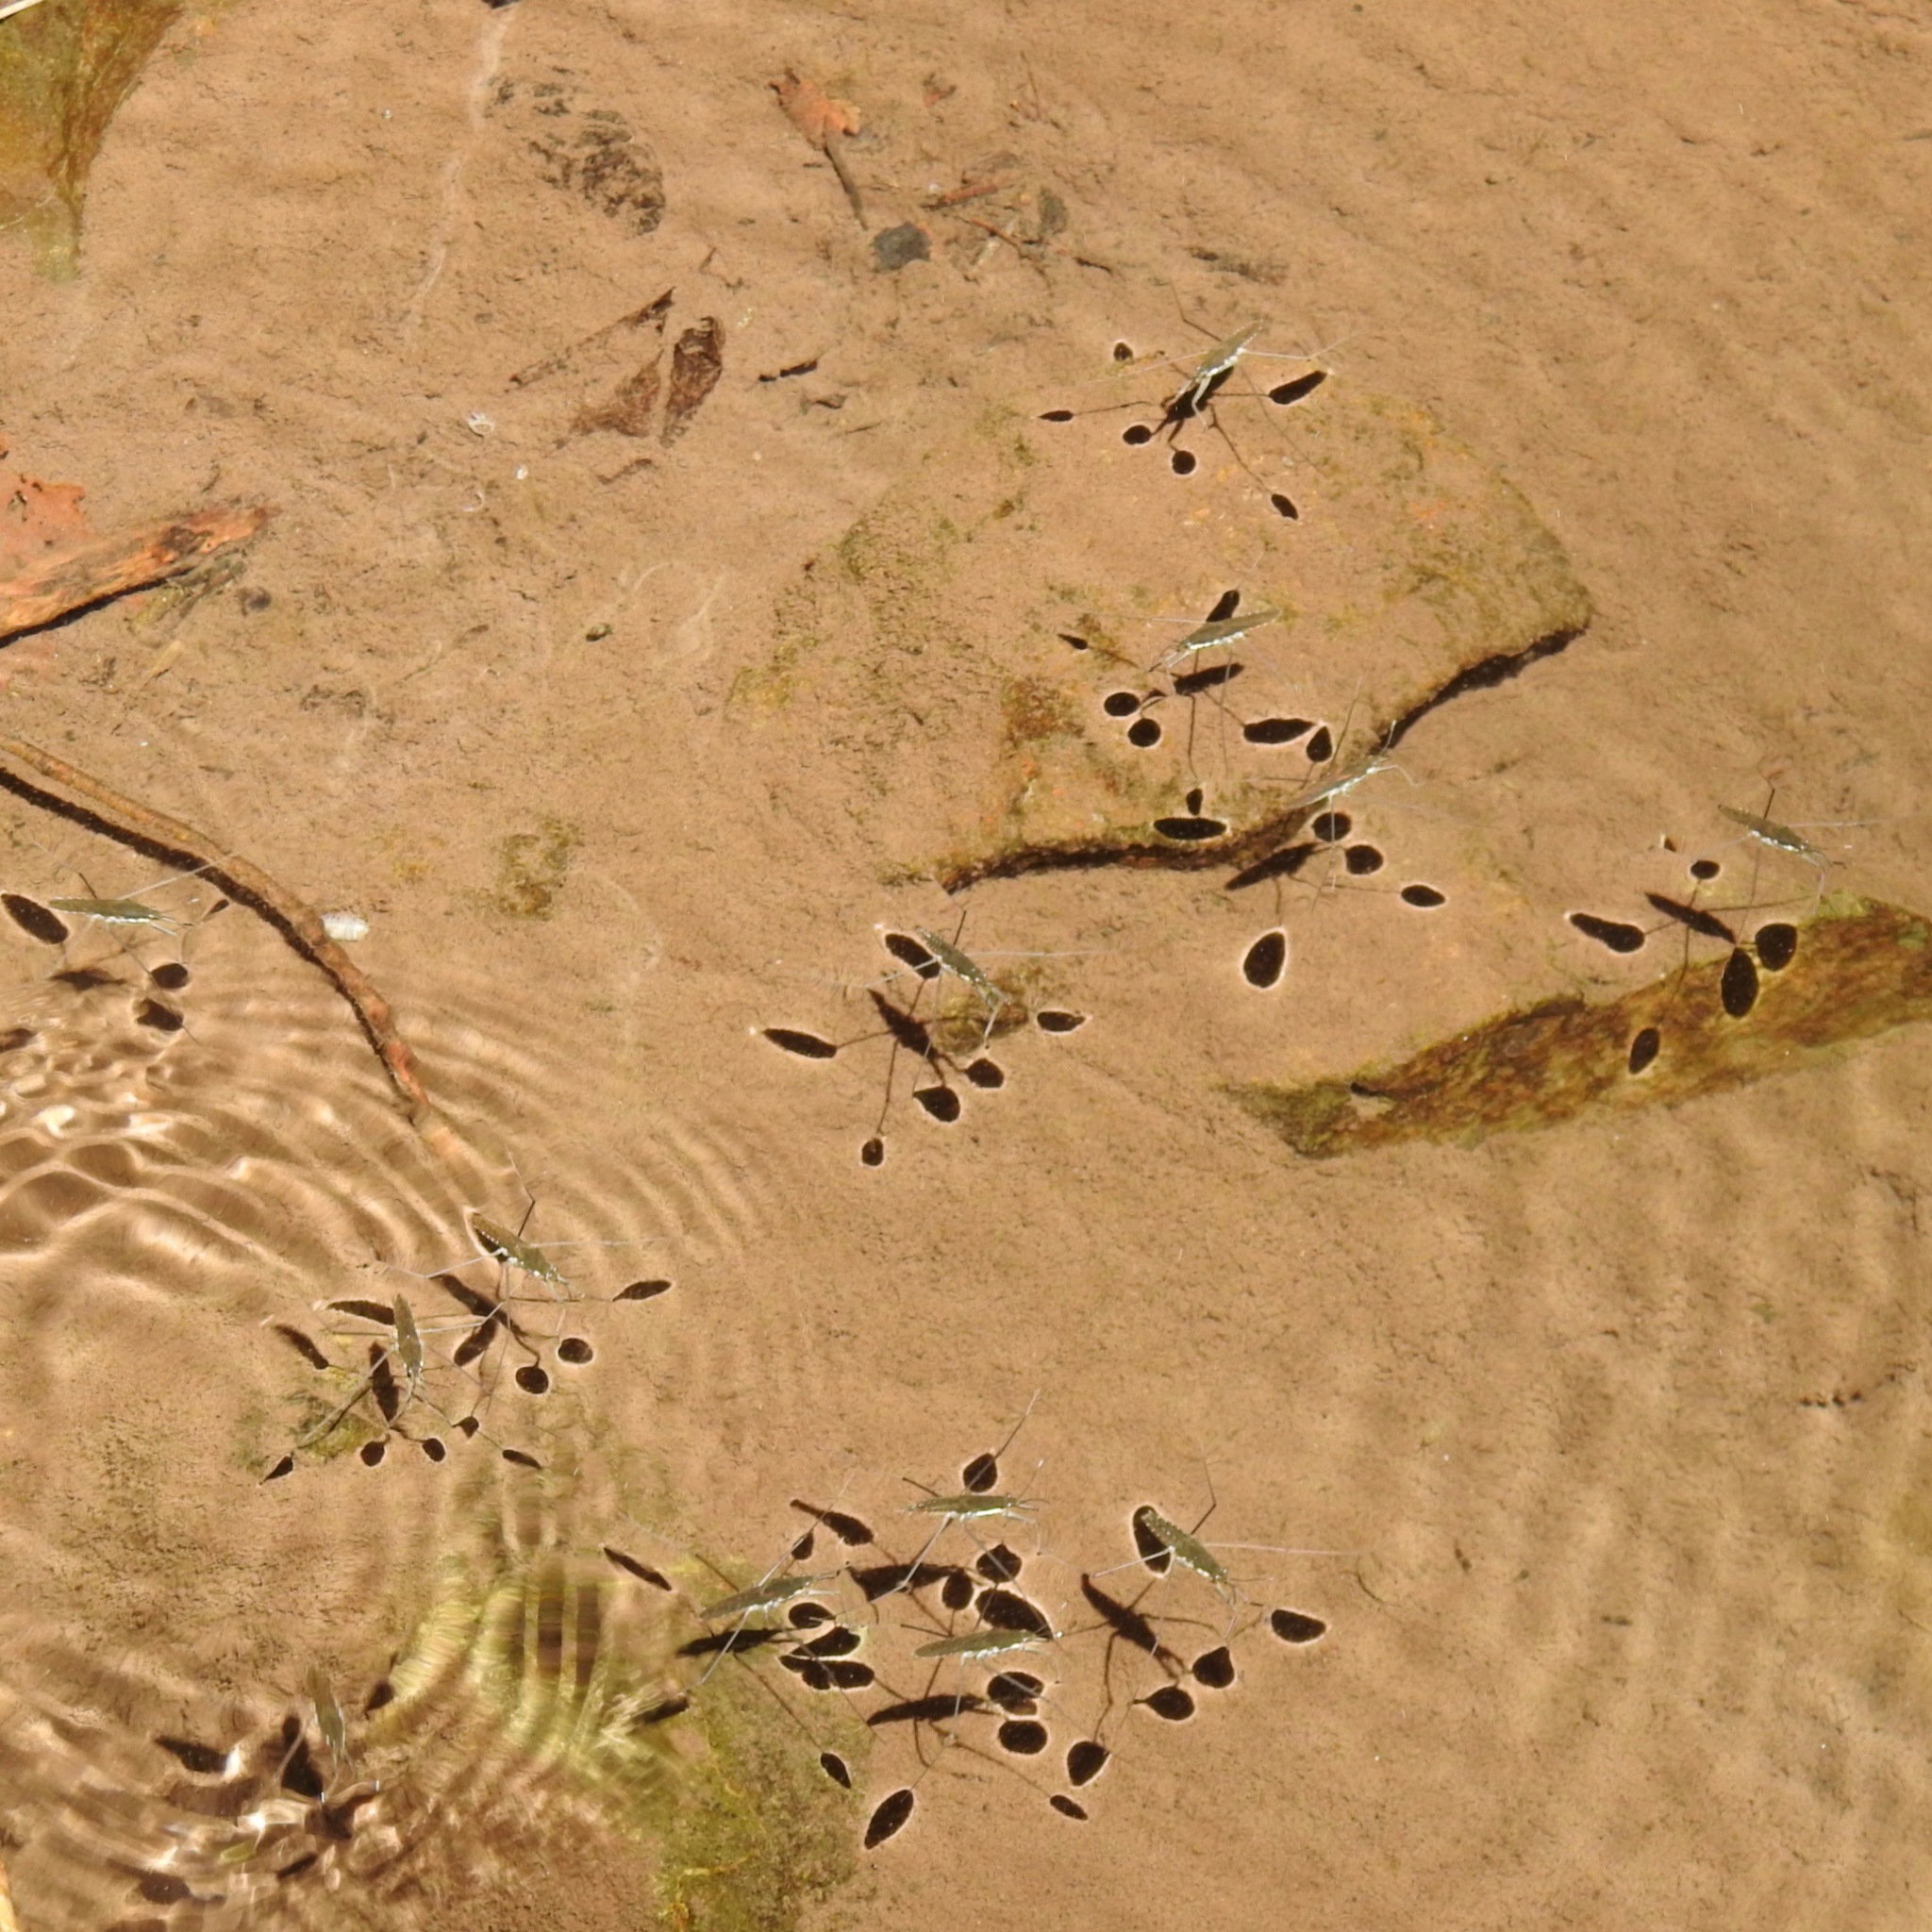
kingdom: Animalia
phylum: Arthropoda
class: Insecta
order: Hemiptera
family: Gerridae
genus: Aquarius
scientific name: Aquarius remigis
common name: Common water strider
